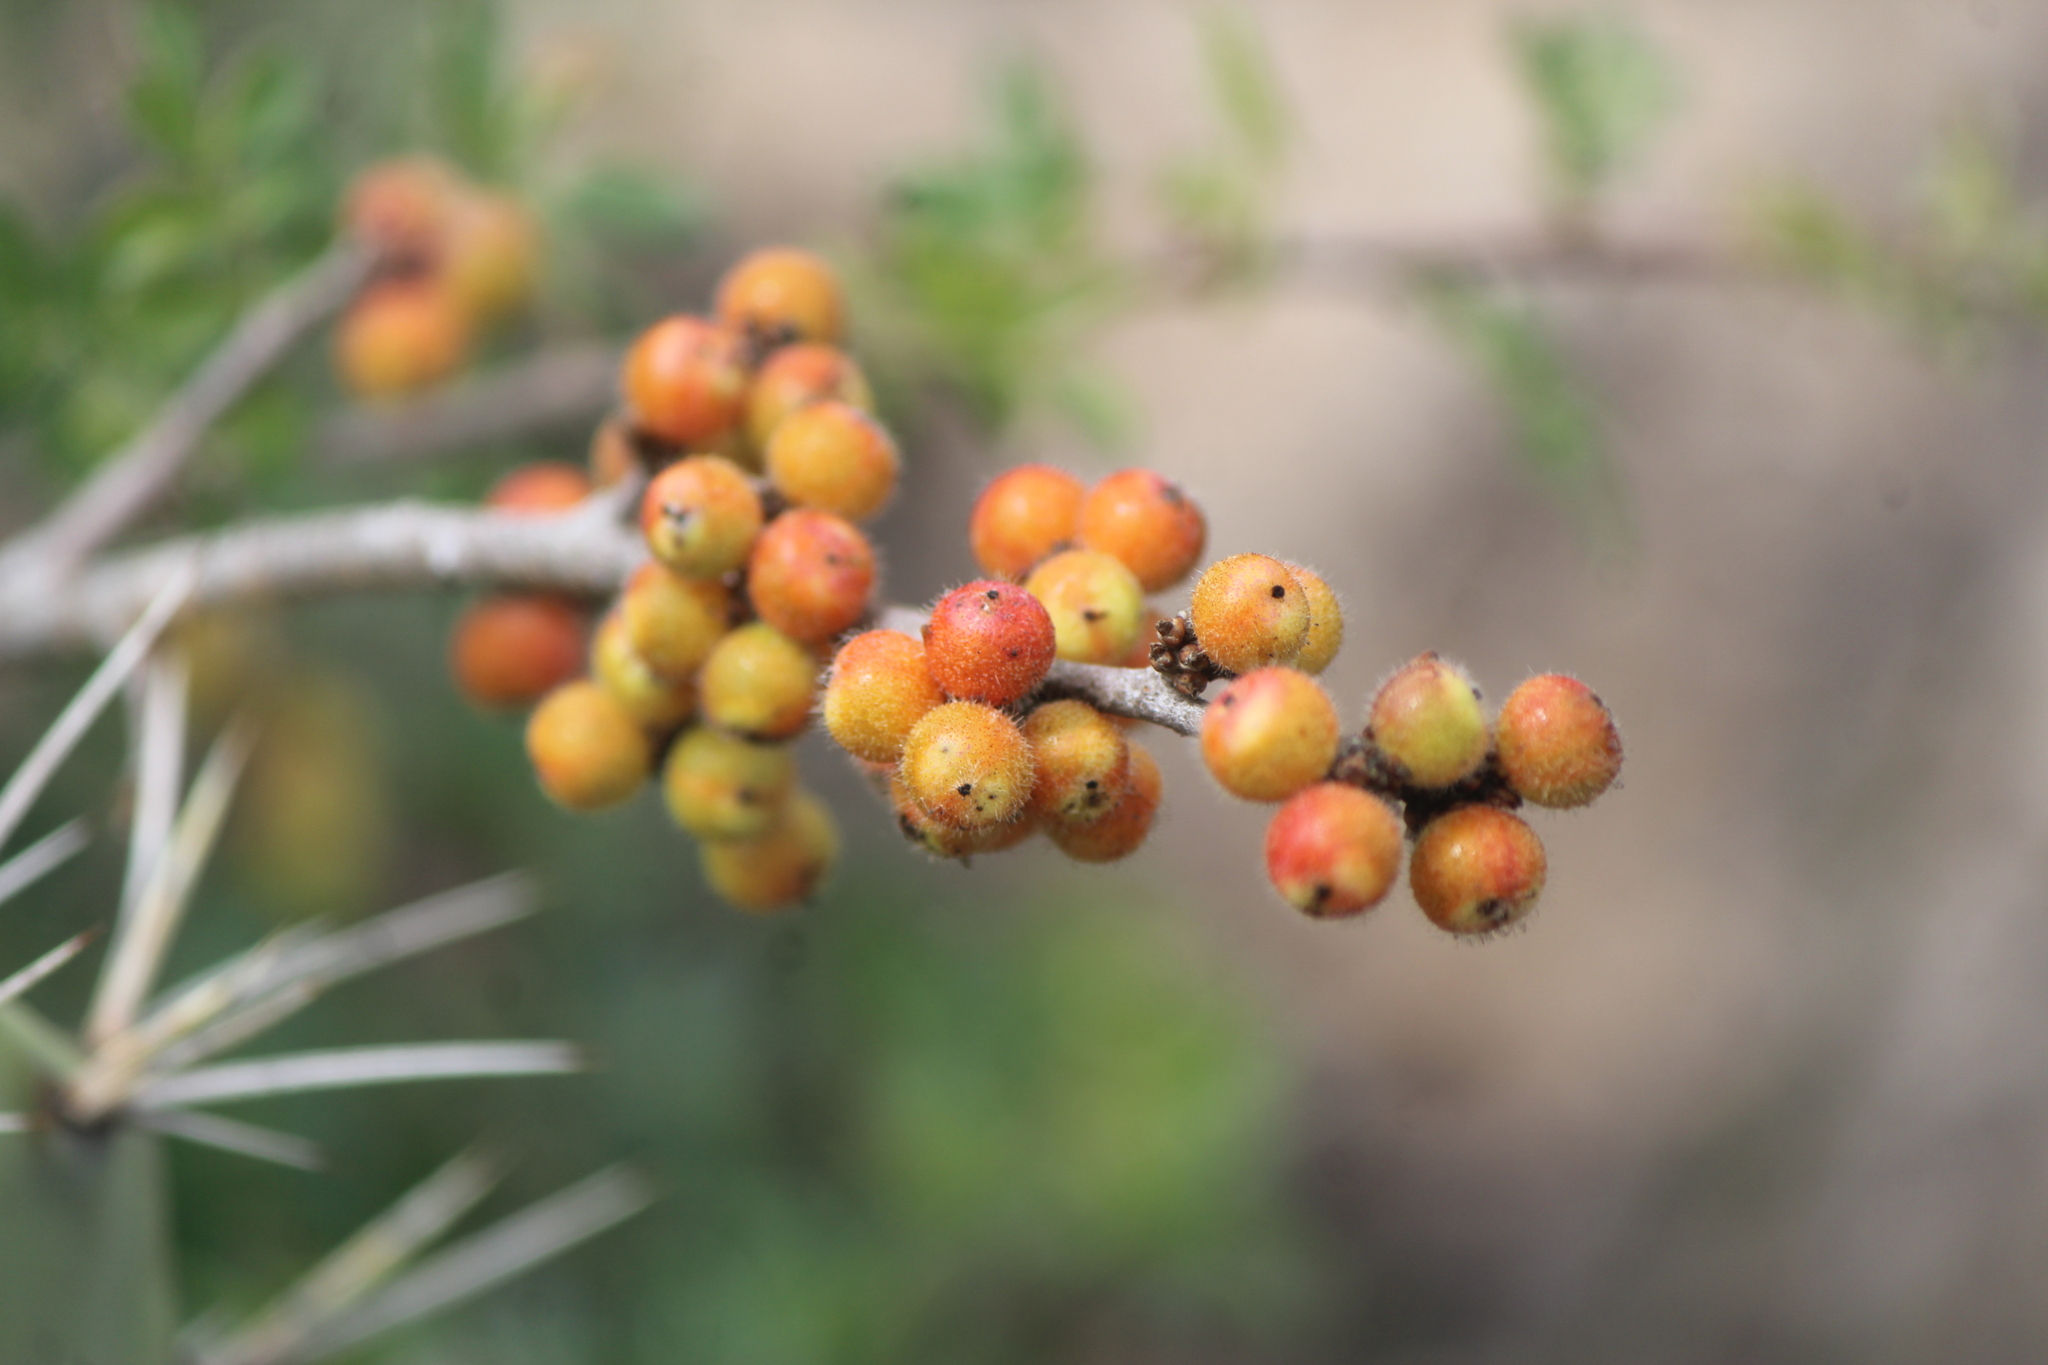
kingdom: Plantae
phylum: Tracheophyta
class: Magnoliopsida
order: Sapindales
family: Anacardiaceae
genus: Rhus
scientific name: Rhus microphylla
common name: Desert sumac
